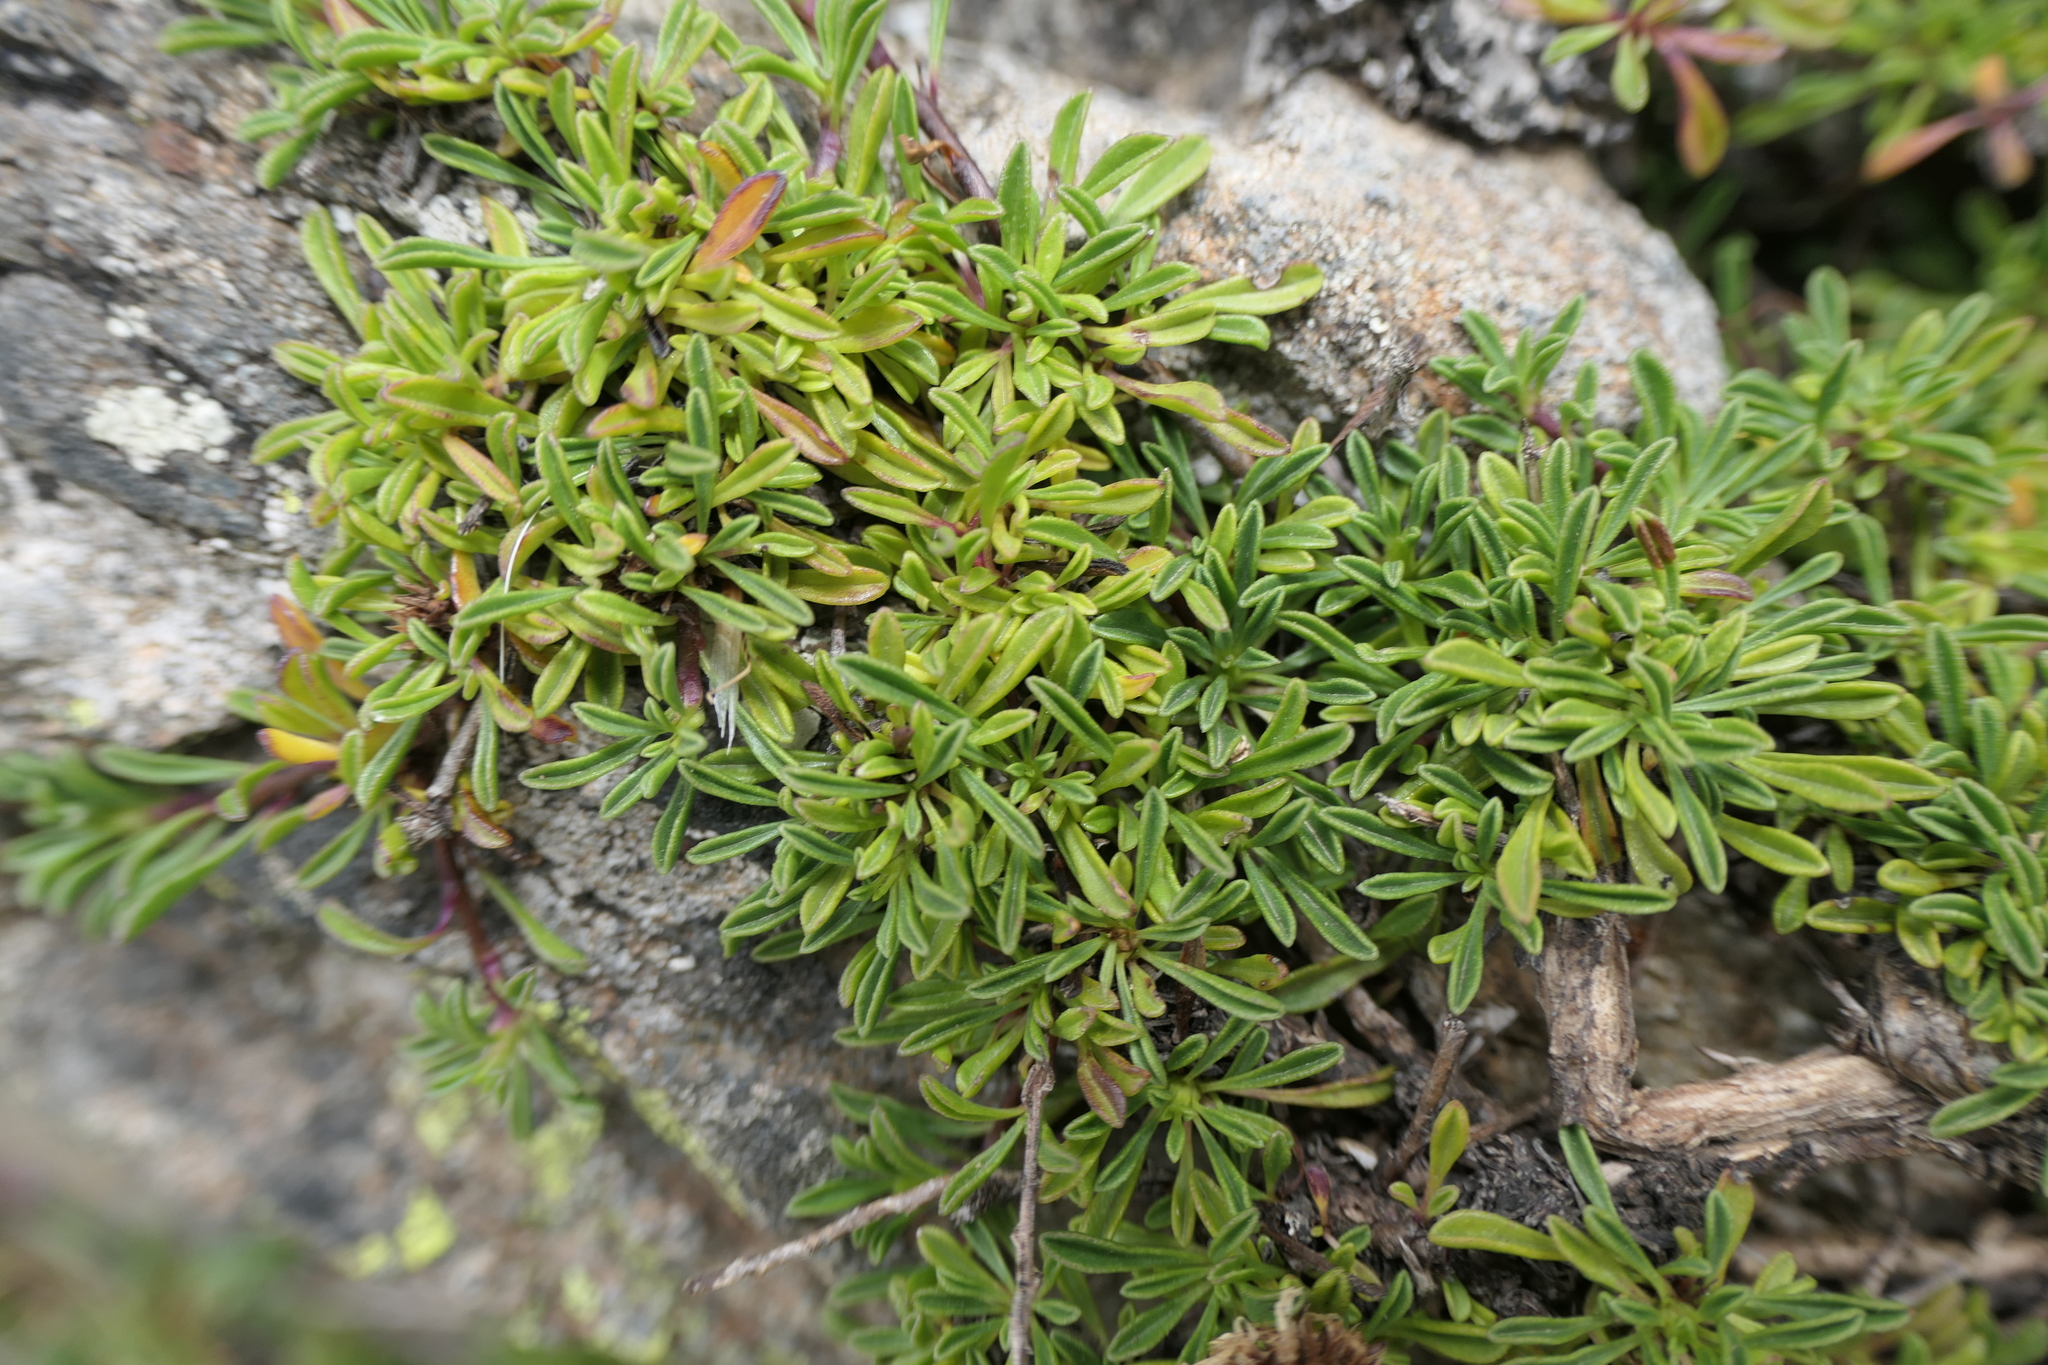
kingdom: Plantae
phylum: Tracheophyta
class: Magnoliopsida
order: Lamiales
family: Plantaginaceae
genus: Globularia
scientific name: Globularia repens
